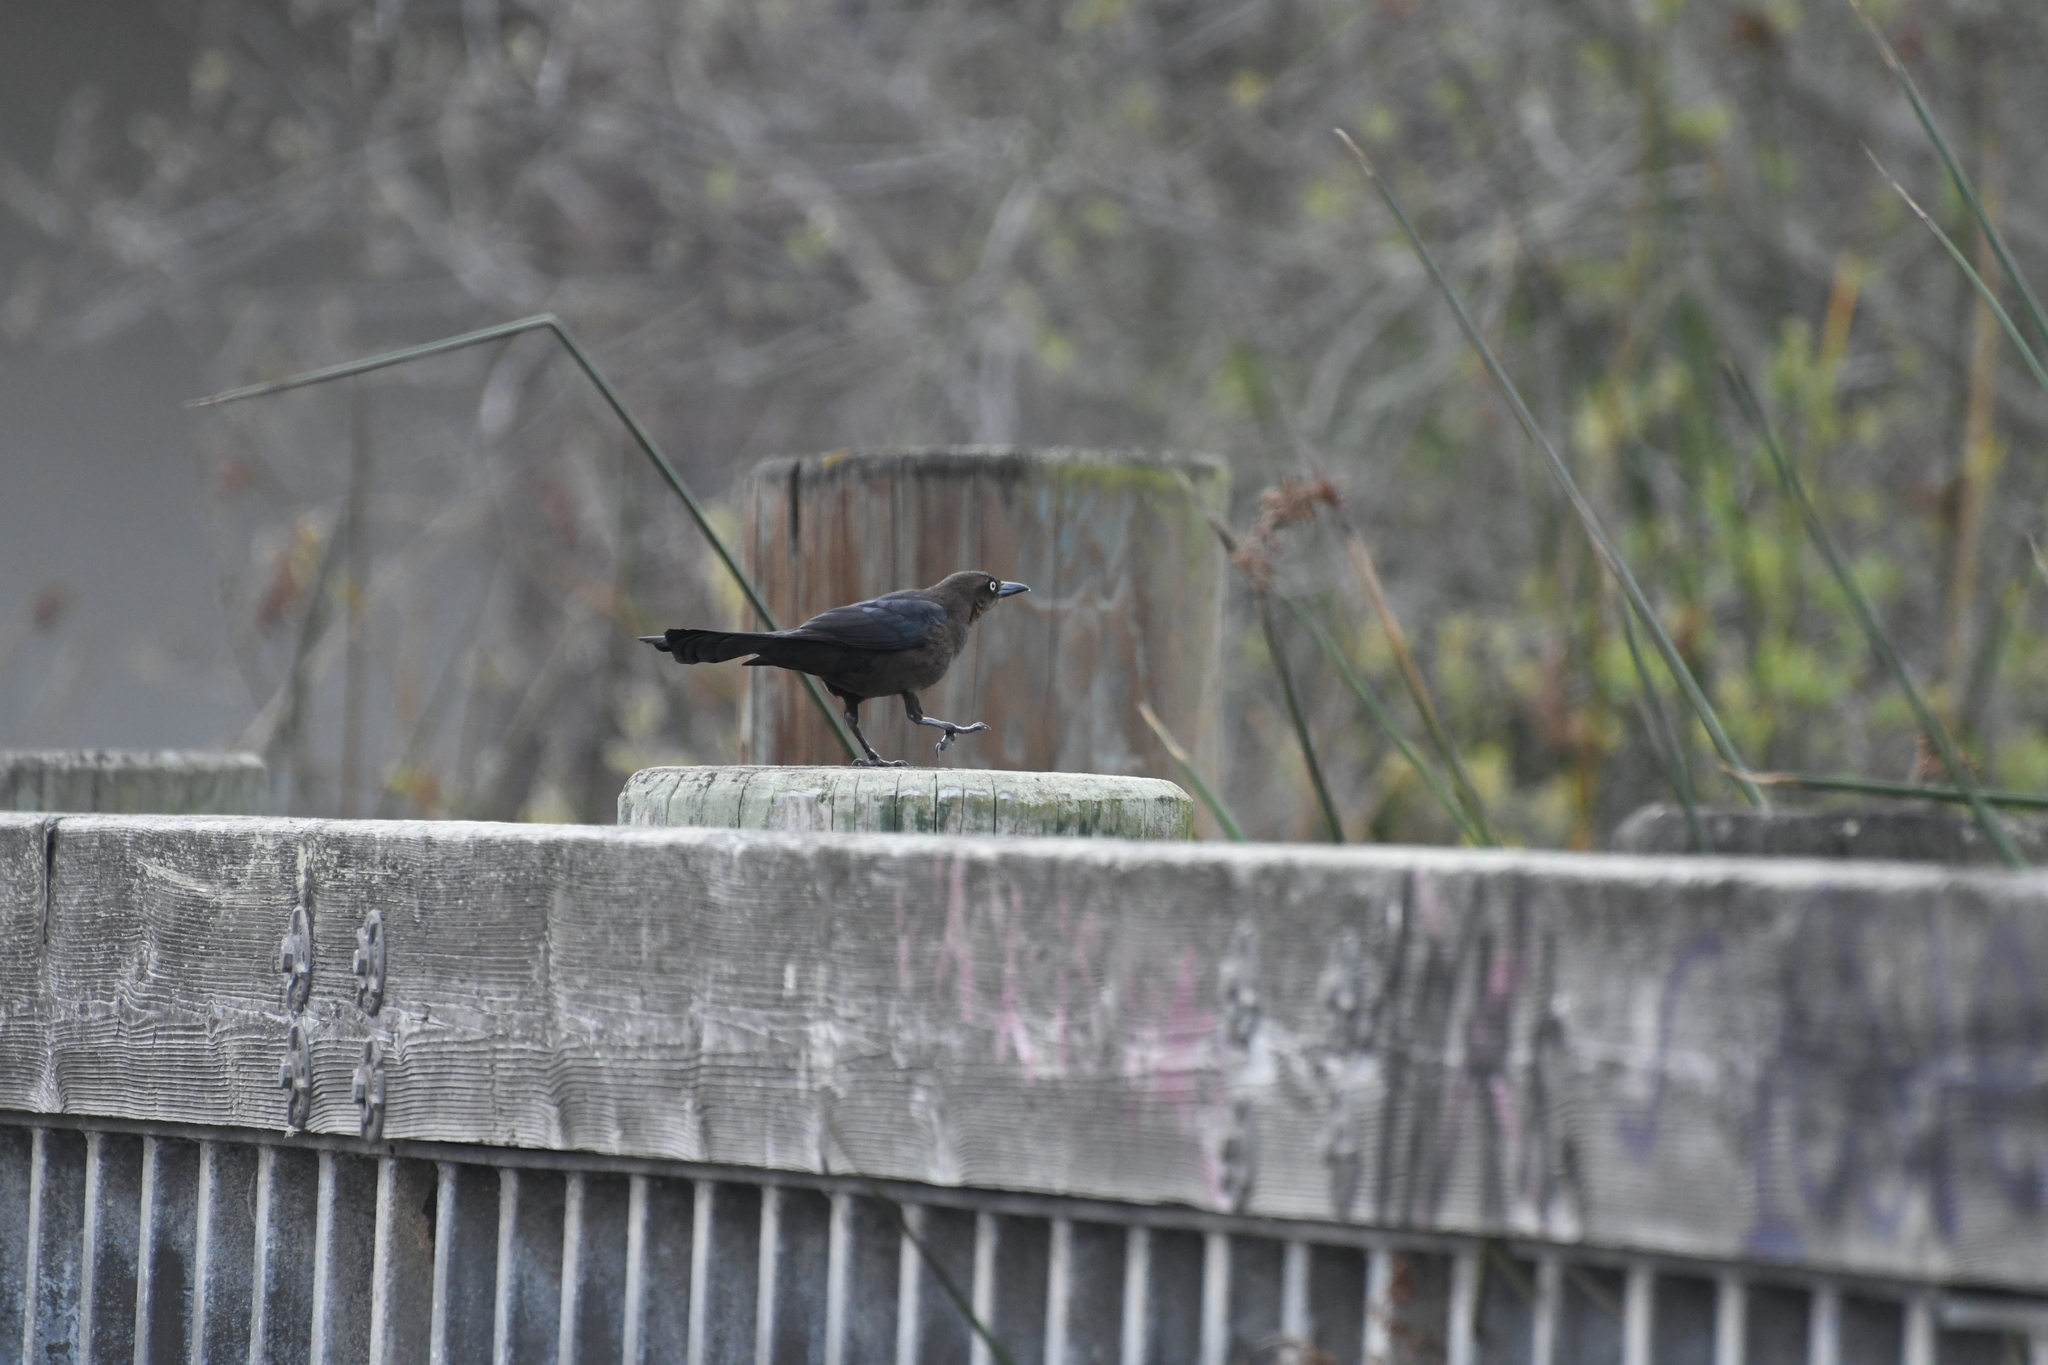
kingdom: Animalia
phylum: Chordata
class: Aves
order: Passeriformes
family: Icteridae
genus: Quiscalus
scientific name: Quiscalus mexicanus
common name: Great-tailed grackle
